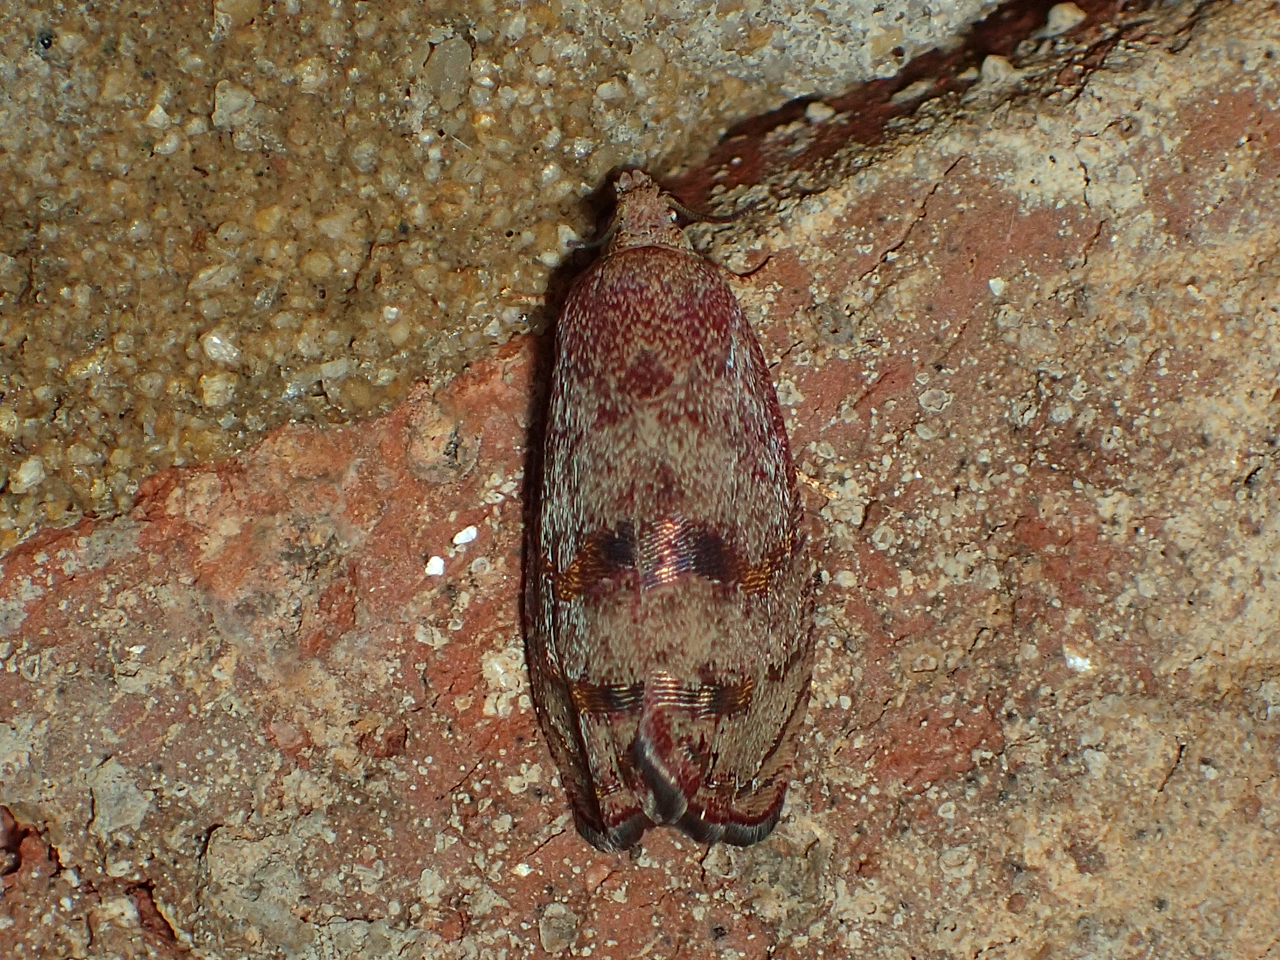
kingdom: Animalia
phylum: Arthropoda
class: Insecta
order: Lepidoptera
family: Tortricidae
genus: Cydia
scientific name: Cydia latiferreana
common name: Filbertworm moth
